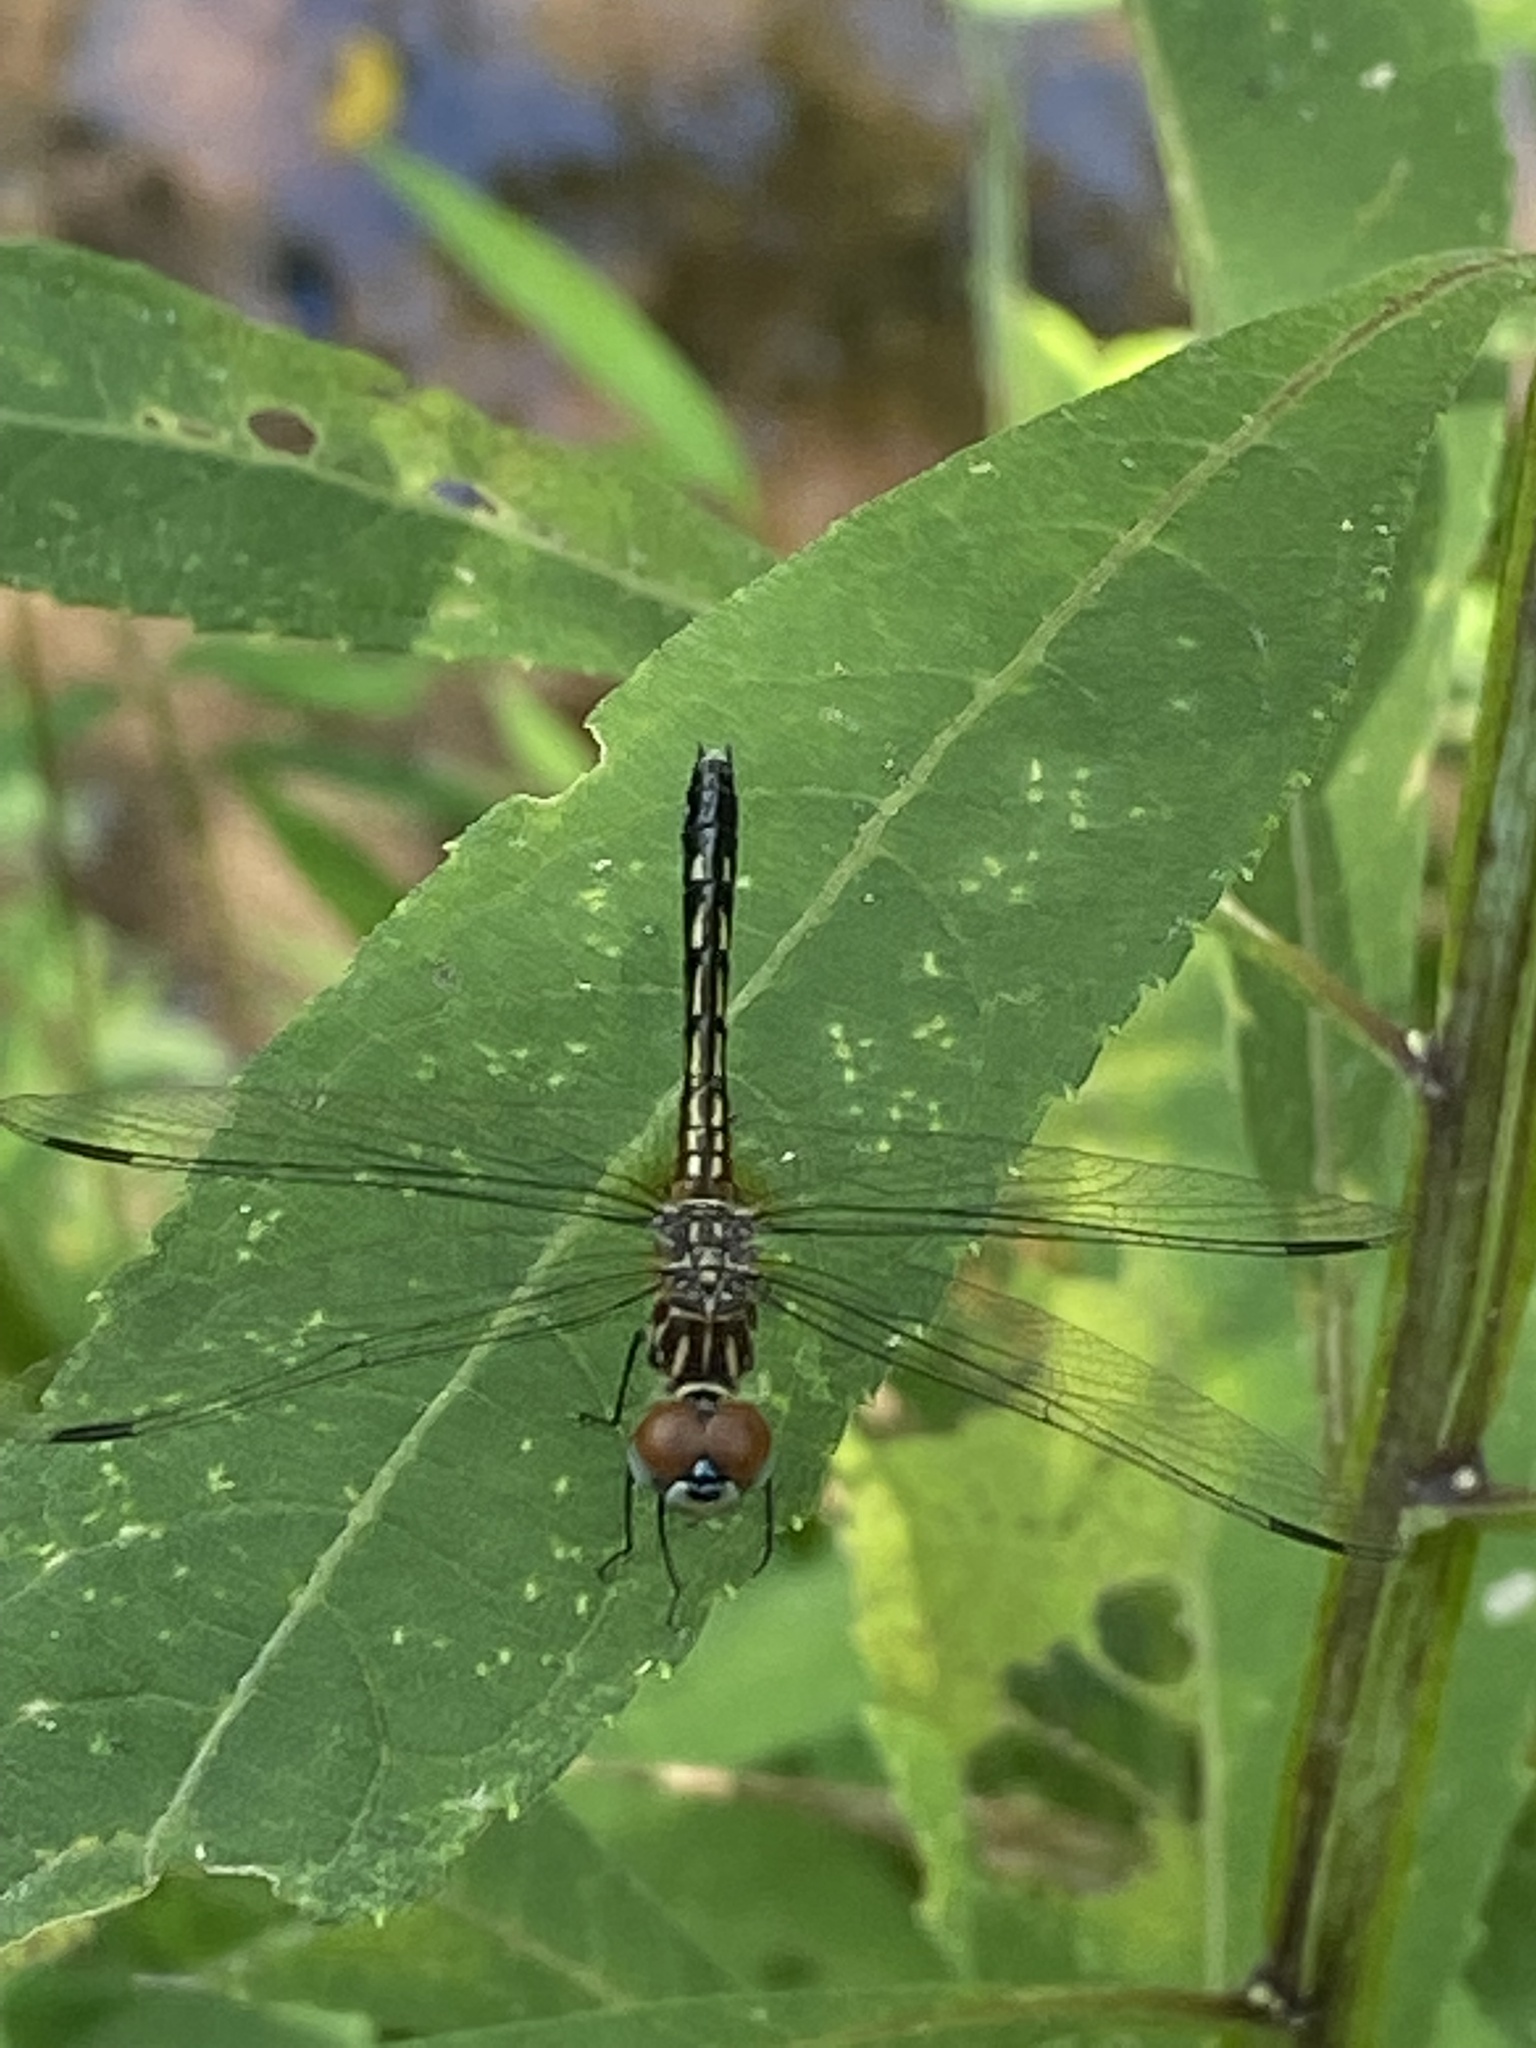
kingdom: Animalia
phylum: Arthropoda
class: Insecta
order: Odonata
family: Libellulidae
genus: Pachydiplax
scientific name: Pachydiplax longipennis
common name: Blue dasher
